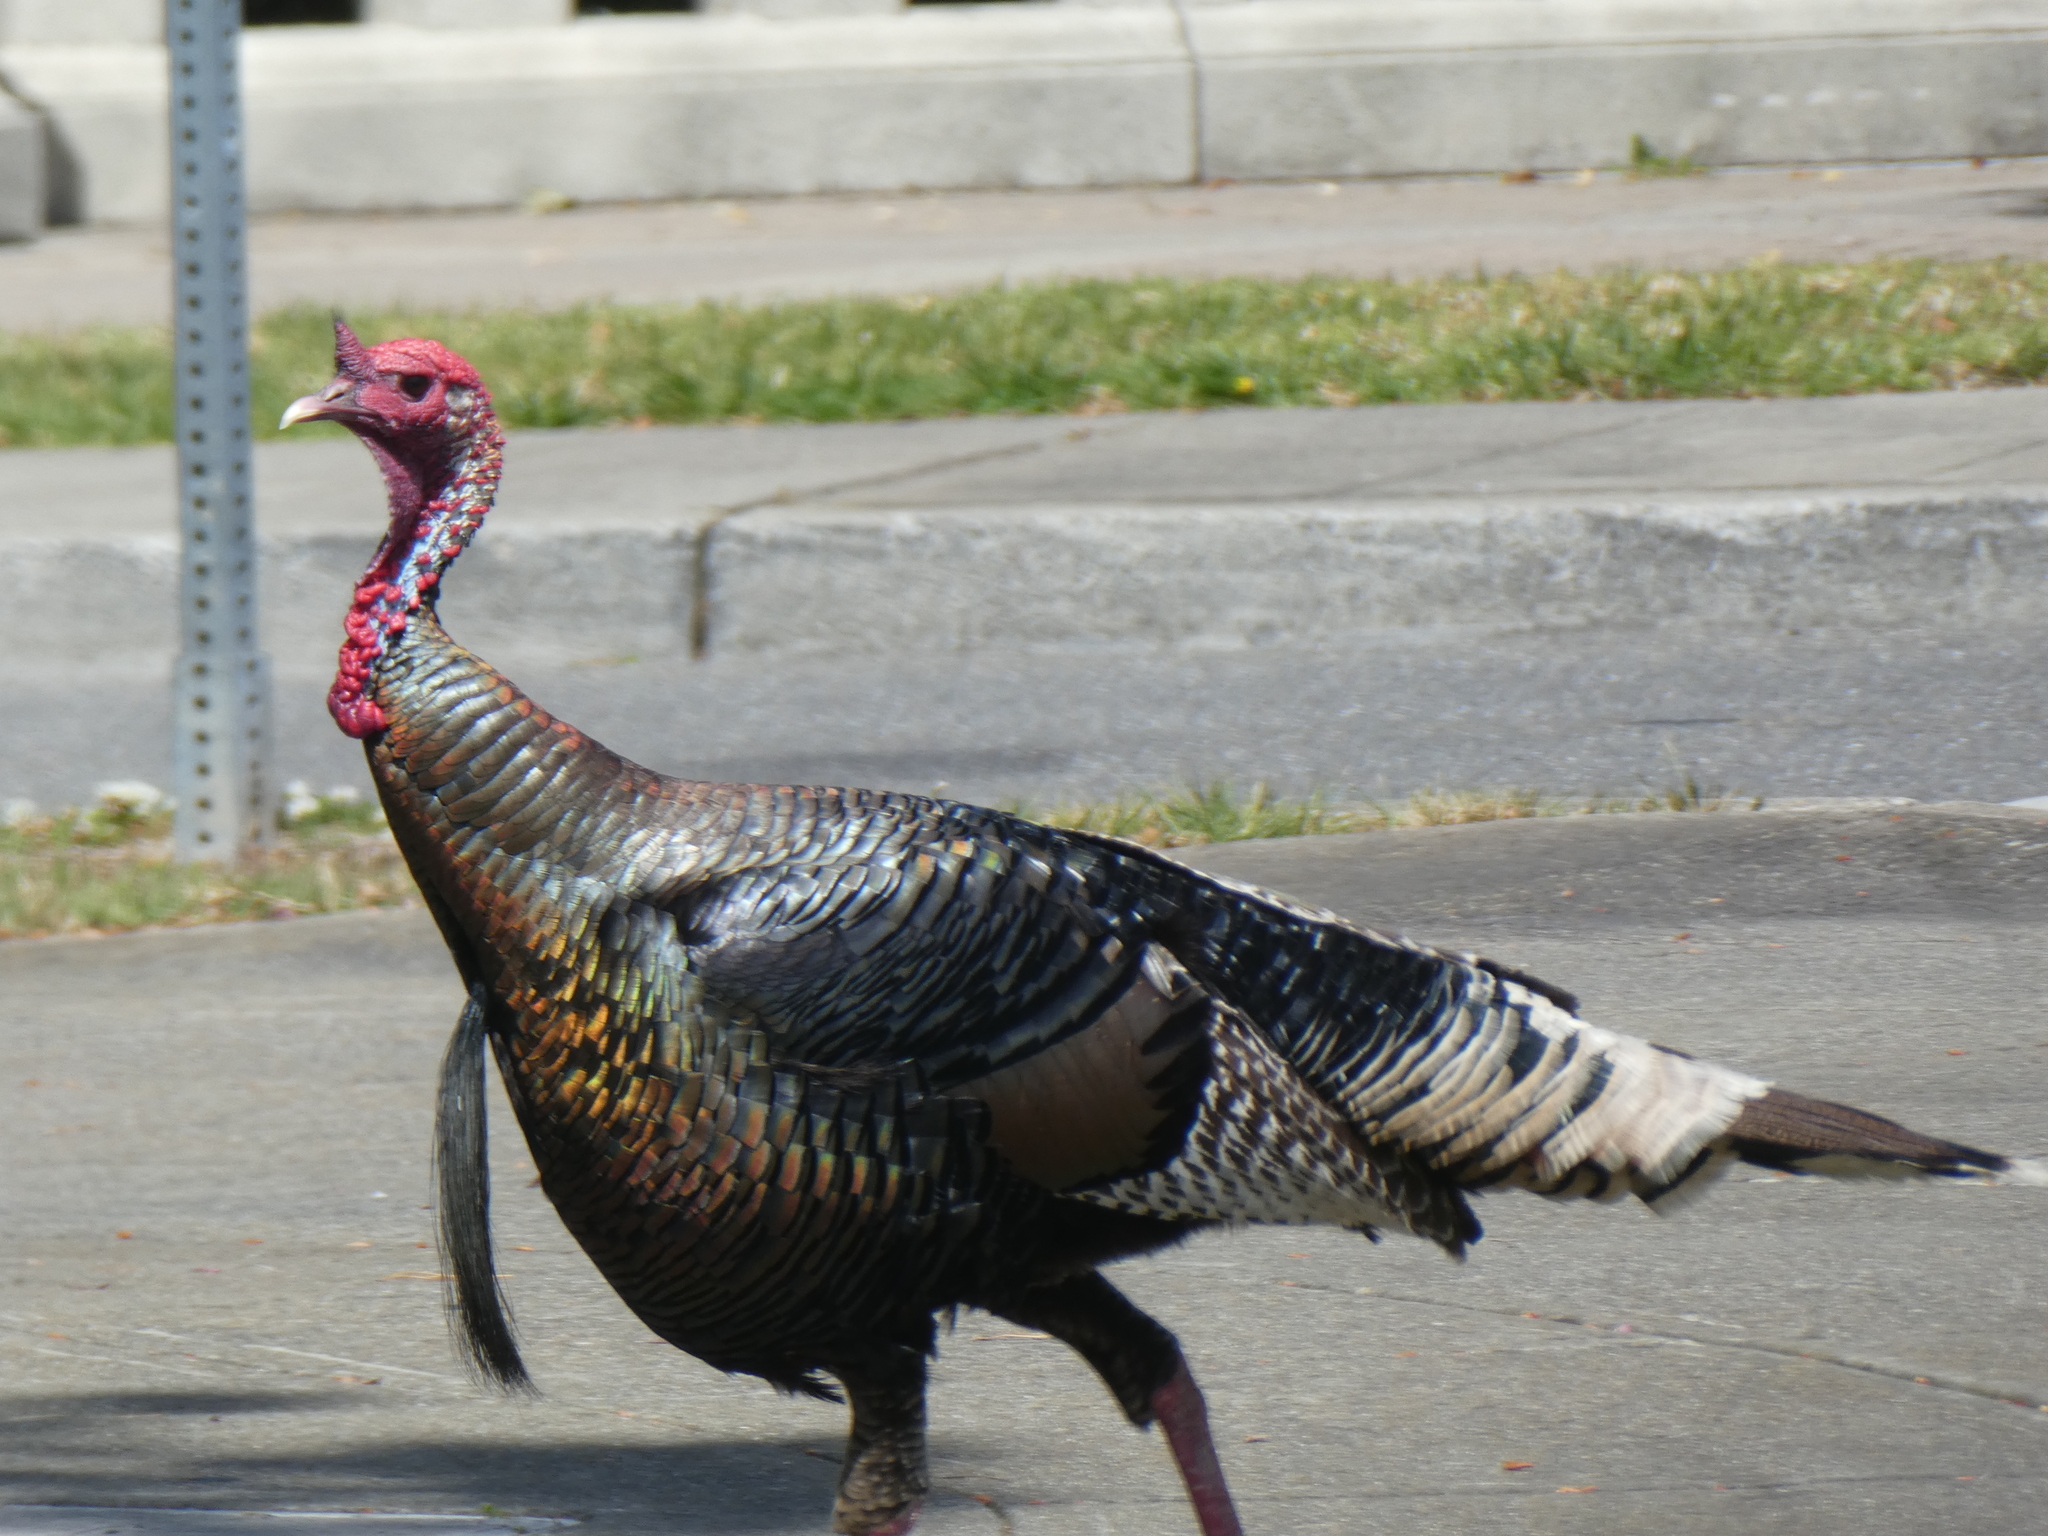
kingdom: Animalia
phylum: Chordata
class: Aves
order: Galliformes
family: Phasianidae
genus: Meleagris
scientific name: Meleagris gallopavo
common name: Wild turkey
